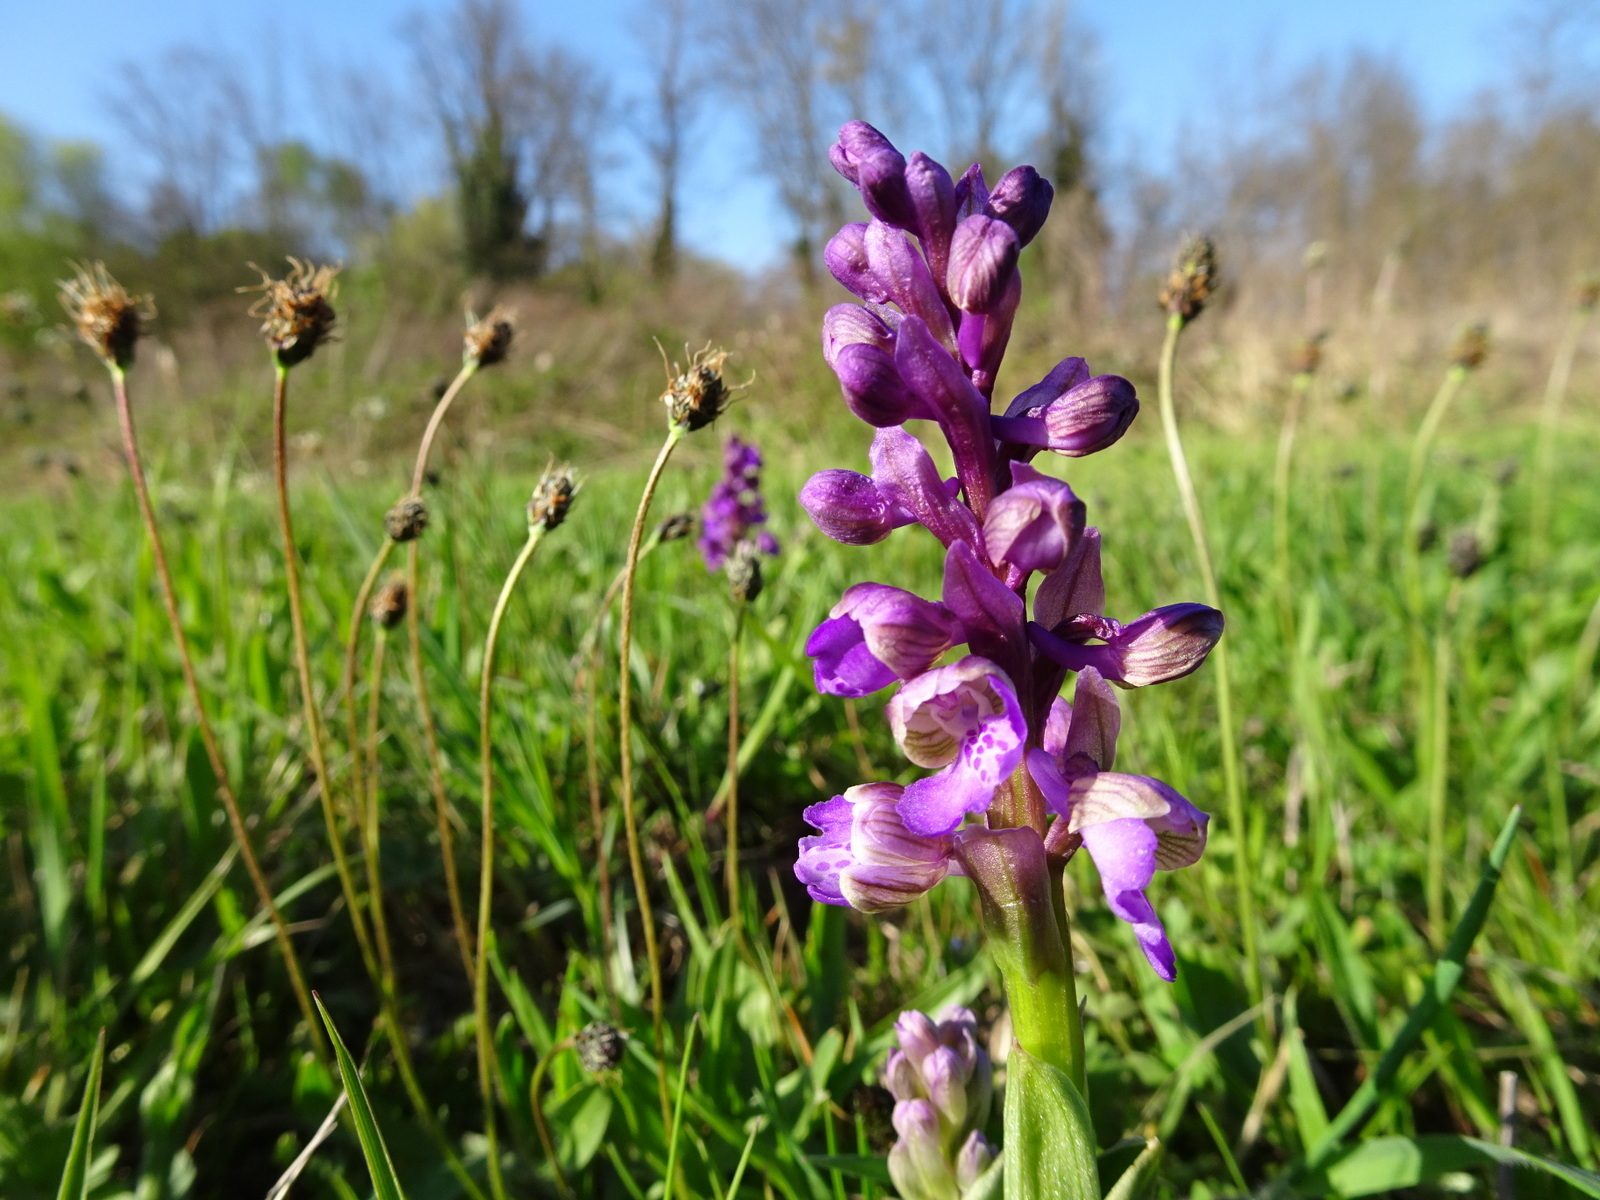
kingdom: Plantae
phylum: Tracheophyta
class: Liliopsida
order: Asparagales
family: Orchidaceae
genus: Anacamptis
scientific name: Anacamptis morio
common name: Green-winged orchid
